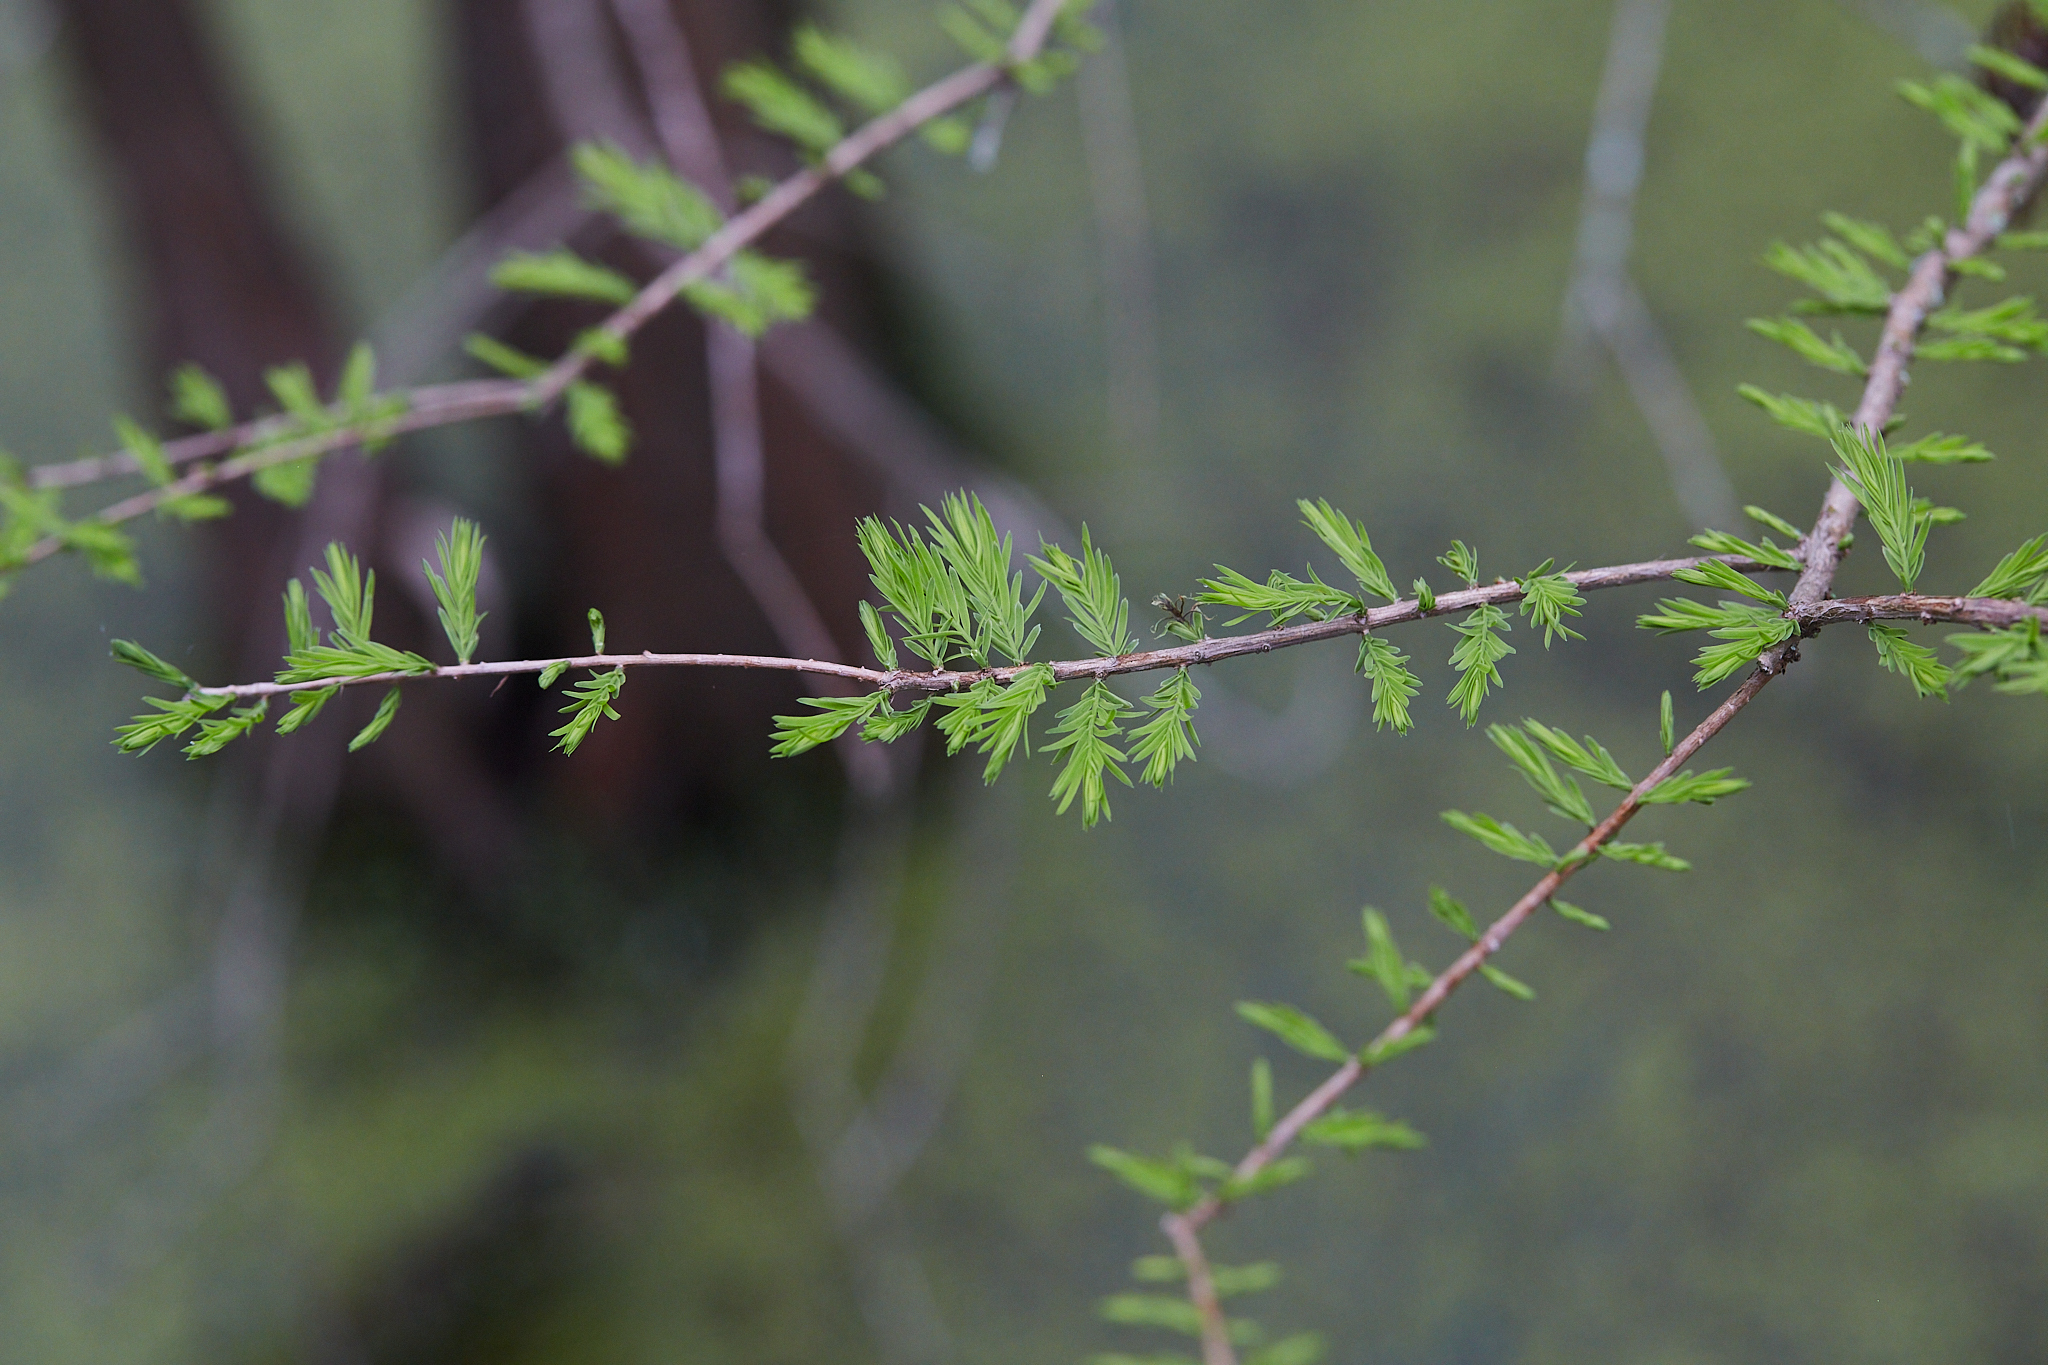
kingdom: Plantae
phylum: Tracheophyta
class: Pinopsida
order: Pinales
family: Cupressaceae
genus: Taxodium
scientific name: Taxodium distichum
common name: Bald cypress
